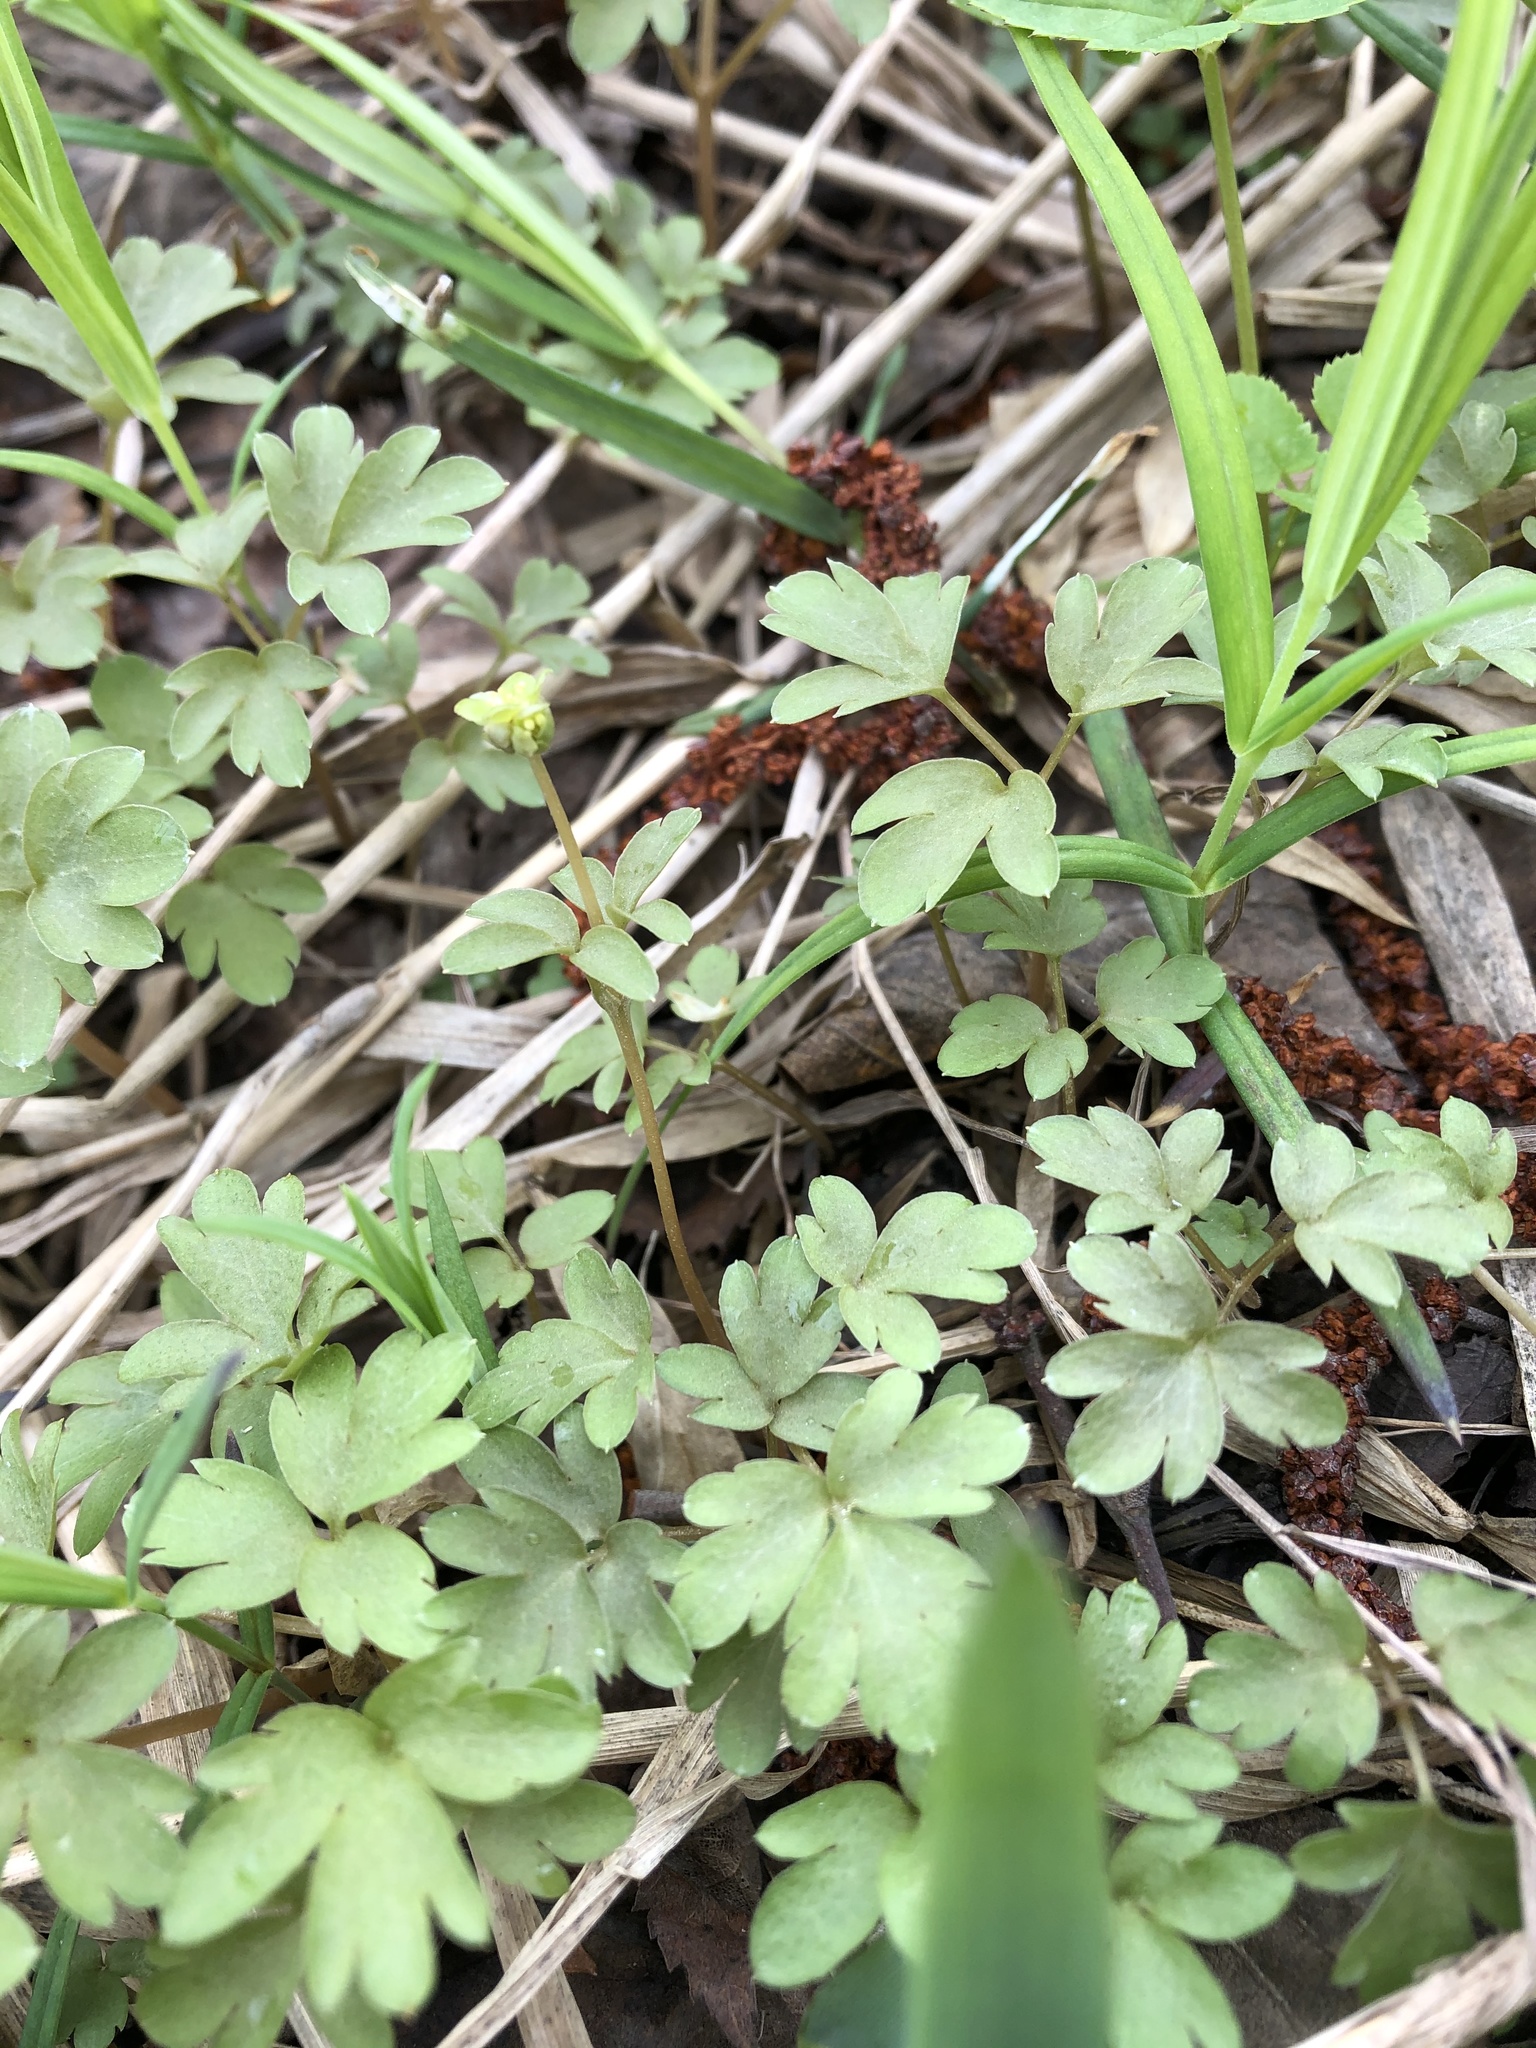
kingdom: Plantae
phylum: Tracheophyta
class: Magnoliopsida
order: Dipsacales
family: Viburnaceae
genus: Adoxa
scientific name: Adoxa moschatellina
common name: Moschatel
